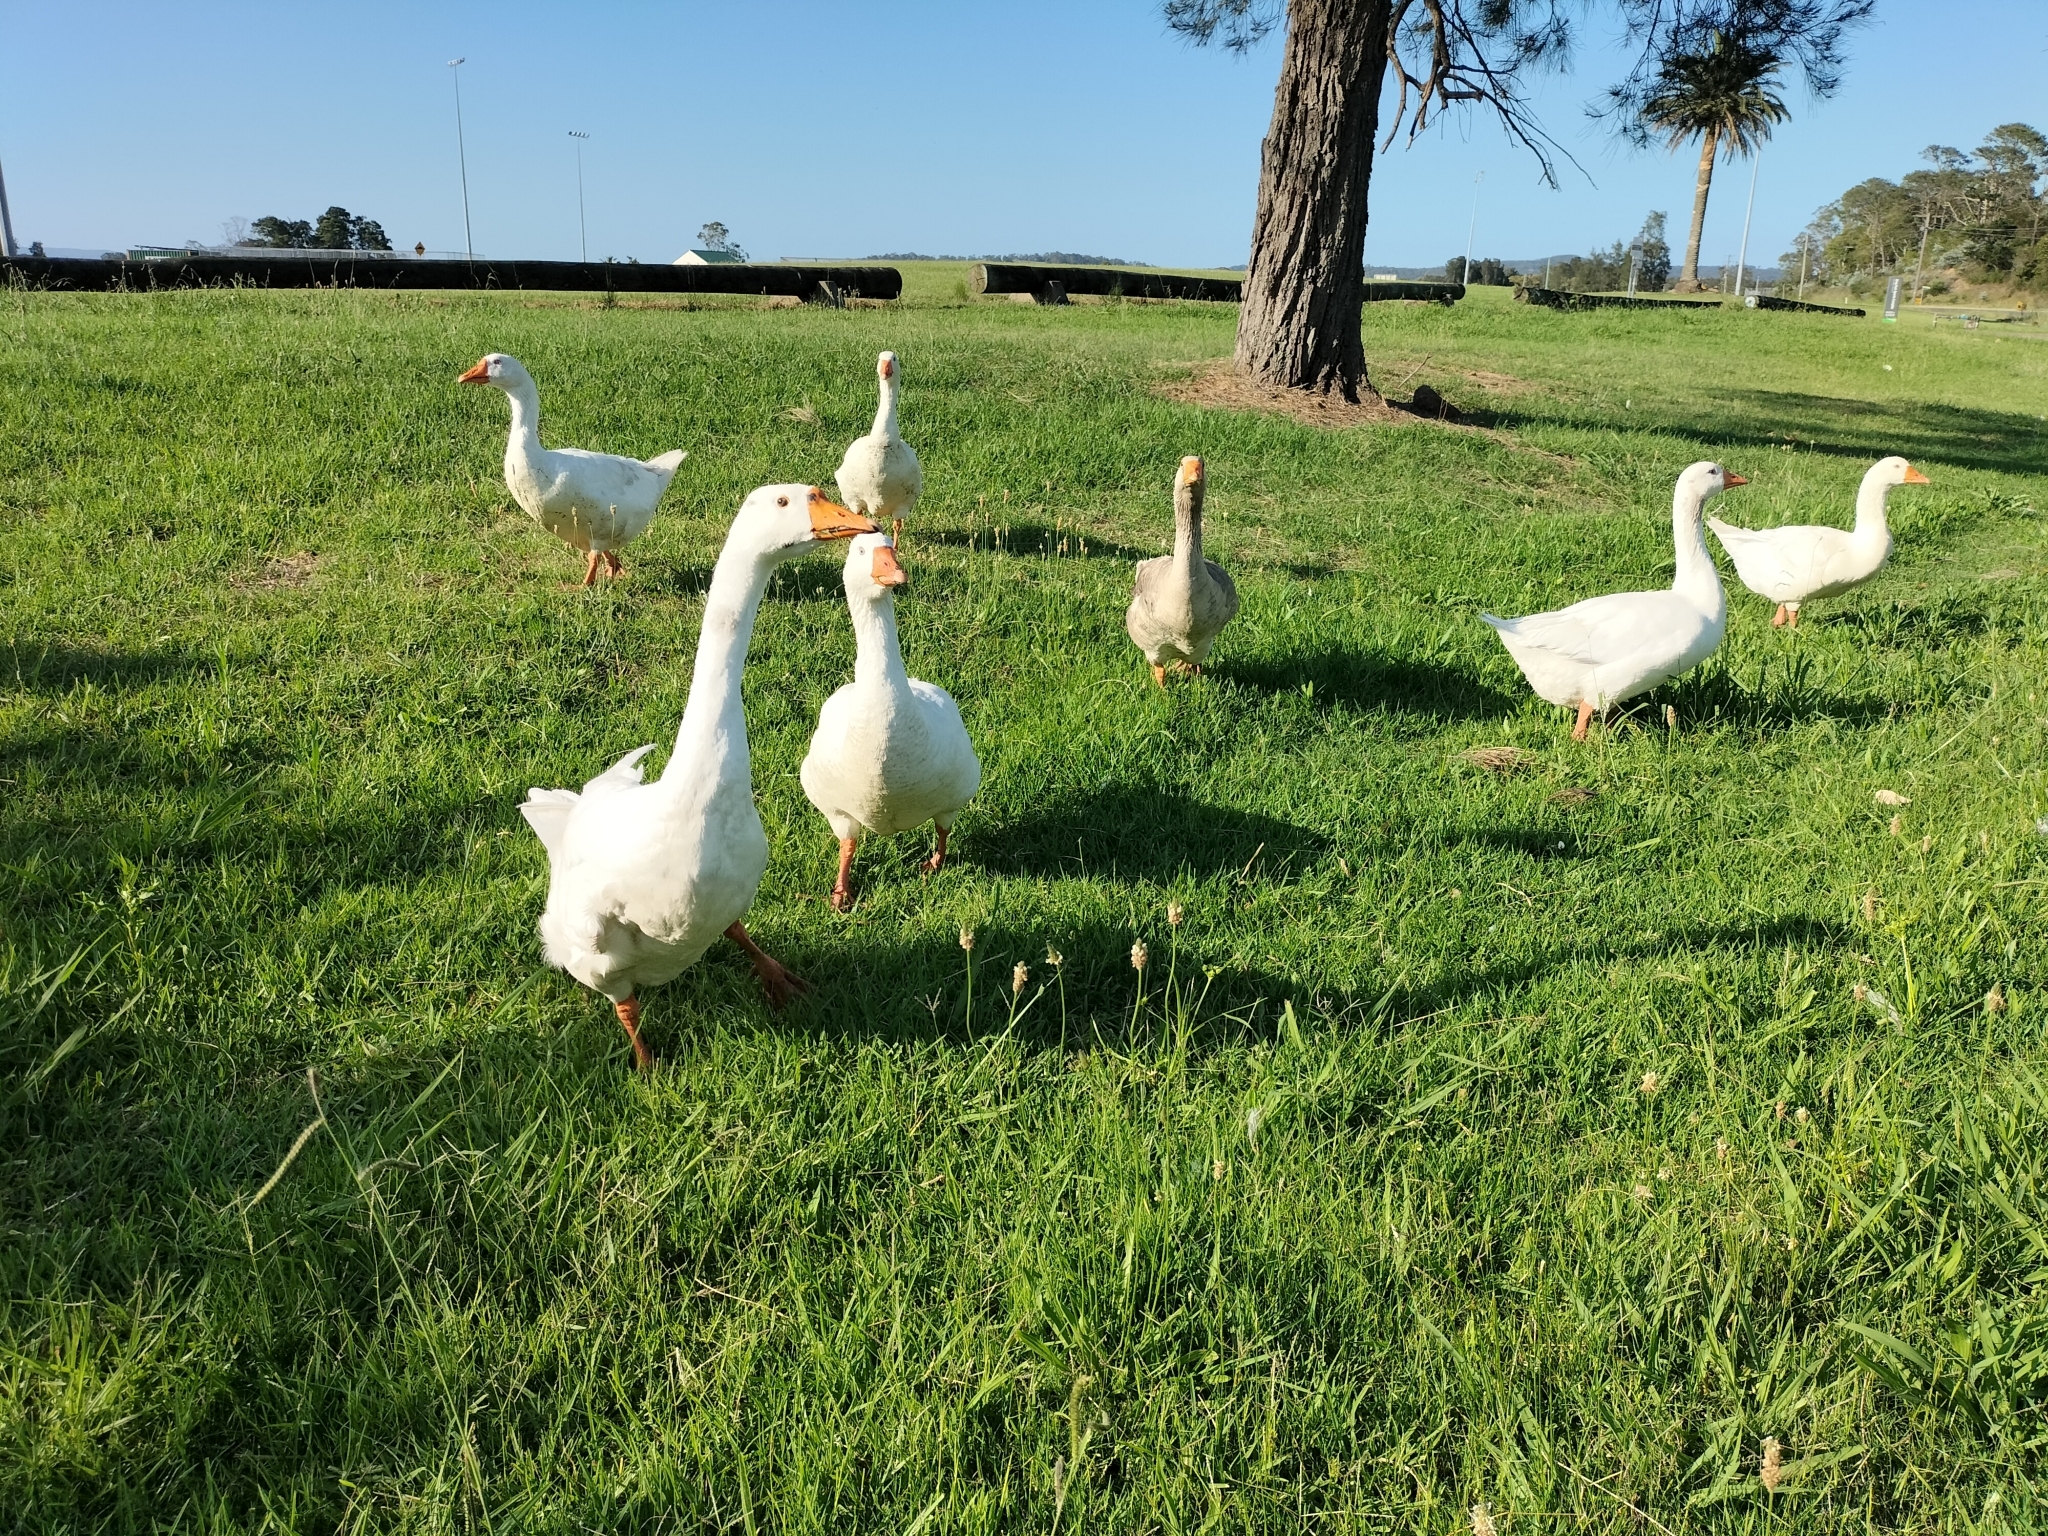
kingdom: Animalia
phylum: Chordata
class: Aves
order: Anseriformes
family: Anatidae
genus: Anser
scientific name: Anser
